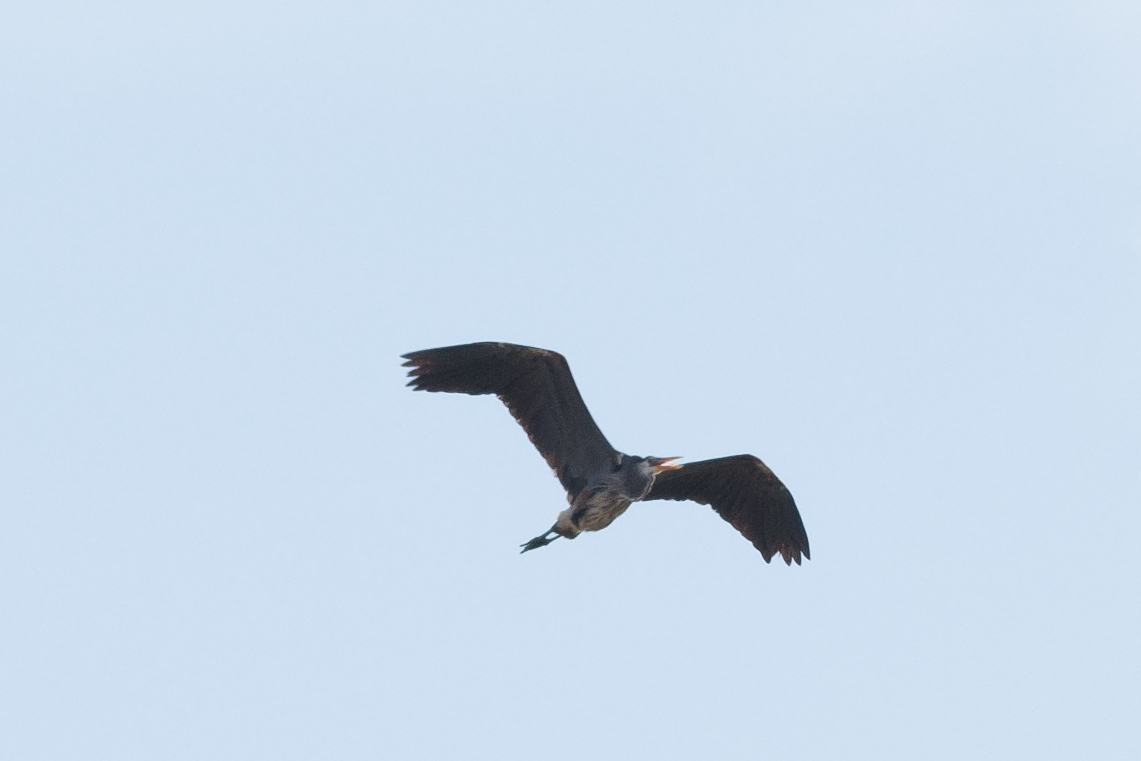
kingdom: Animalia
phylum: Chordata
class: Aves
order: Pelecaniformes
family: Ardeidae
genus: Ardea
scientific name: Ardea herodias
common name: Great blue heron
